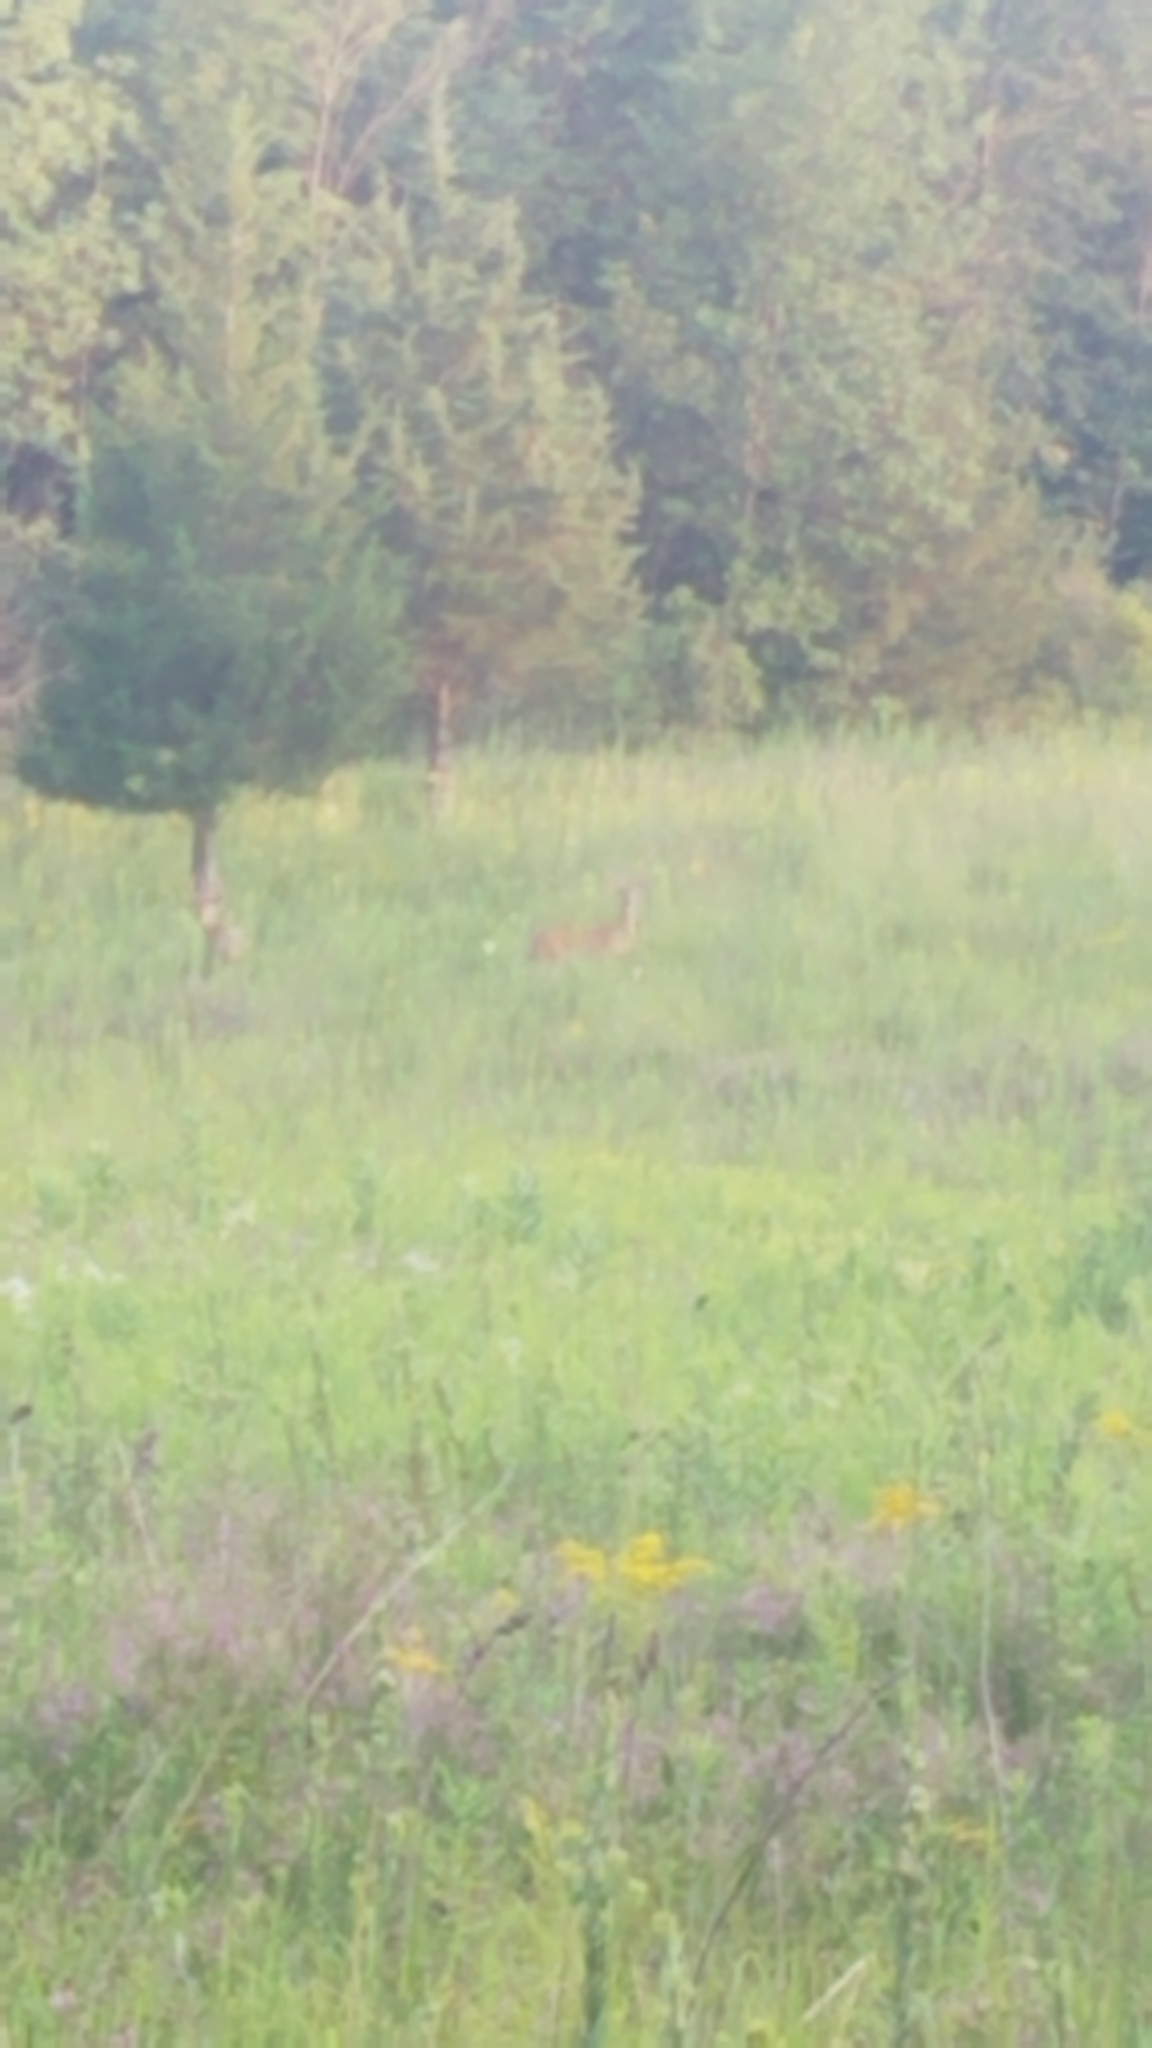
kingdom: Animalia
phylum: Chordata
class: Mammalia
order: Artiodactyla
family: Cervidae
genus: Odocoileus
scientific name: Odocoileus virginianus
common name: White-tailed deer
